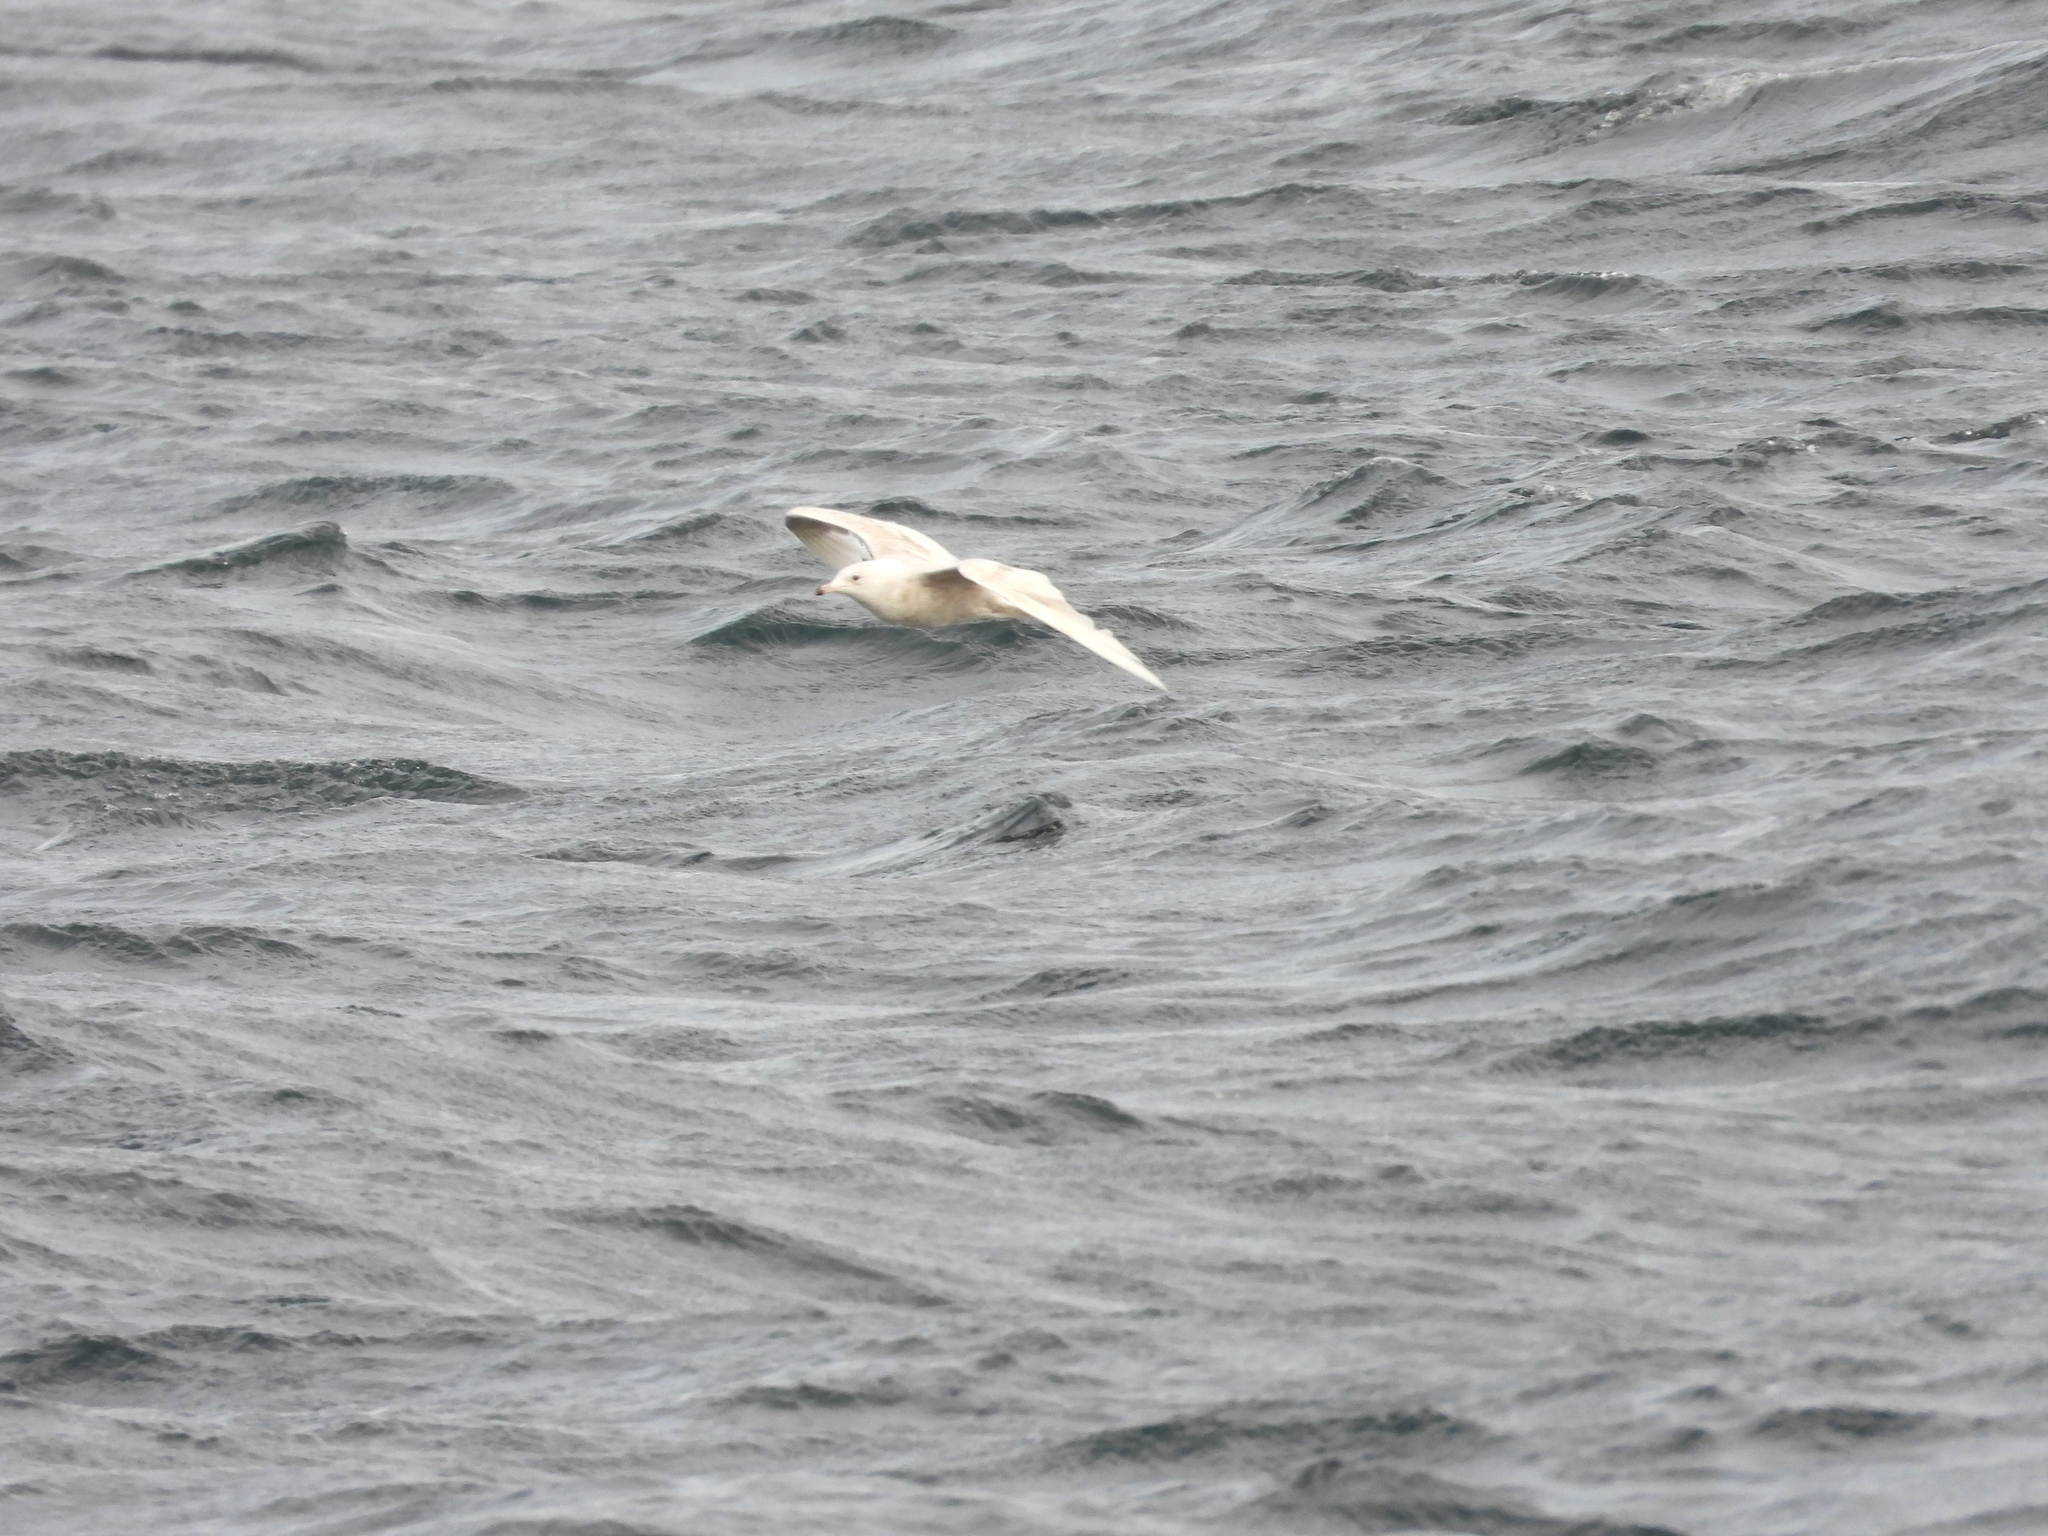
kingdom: Animalia
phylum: Chordata
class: Aves
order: Charadriiformes
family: Laridae
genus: Larus
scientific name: Larus glaucoides
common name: Iceland gull
